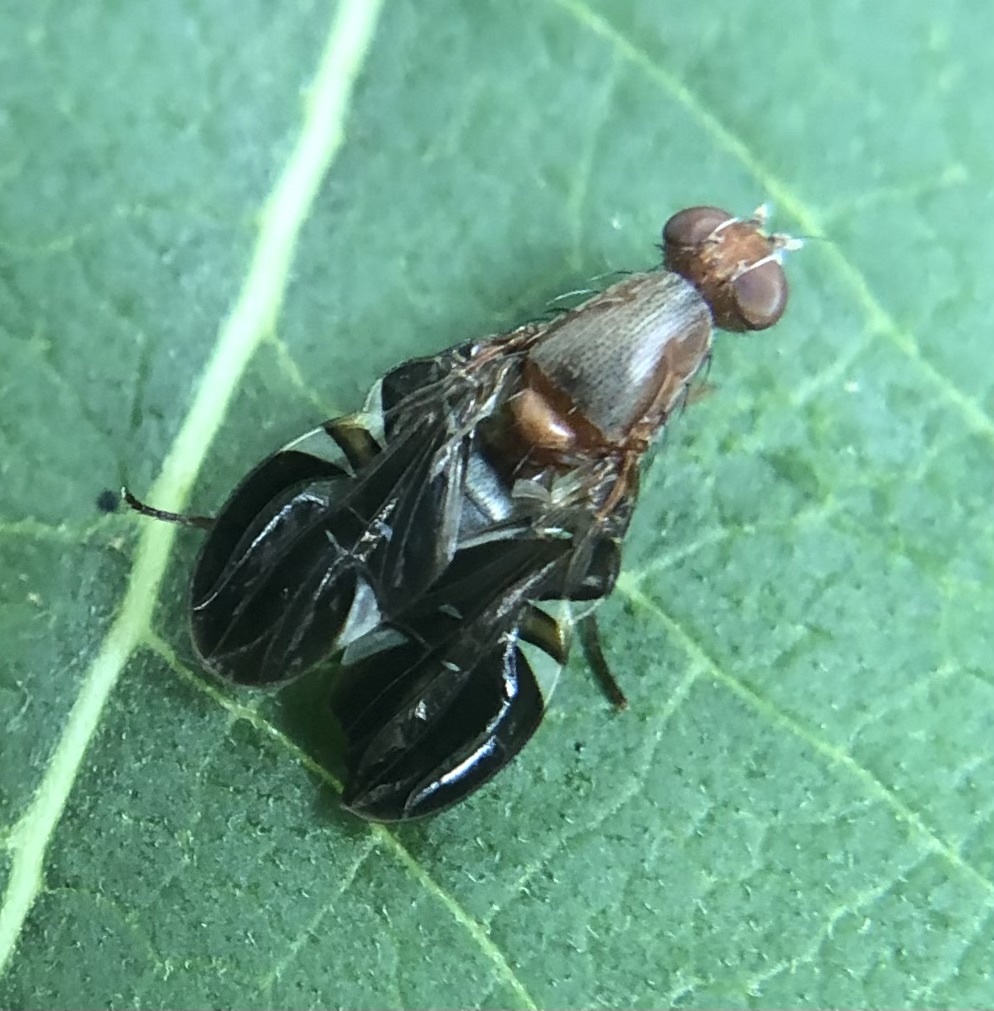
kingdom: Animalia
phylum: Arthropoda
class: Insecta
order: Diptera
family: Ulidiidae
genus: Delphinia
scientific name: Delphinia picta
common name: Common picture-winged fly
